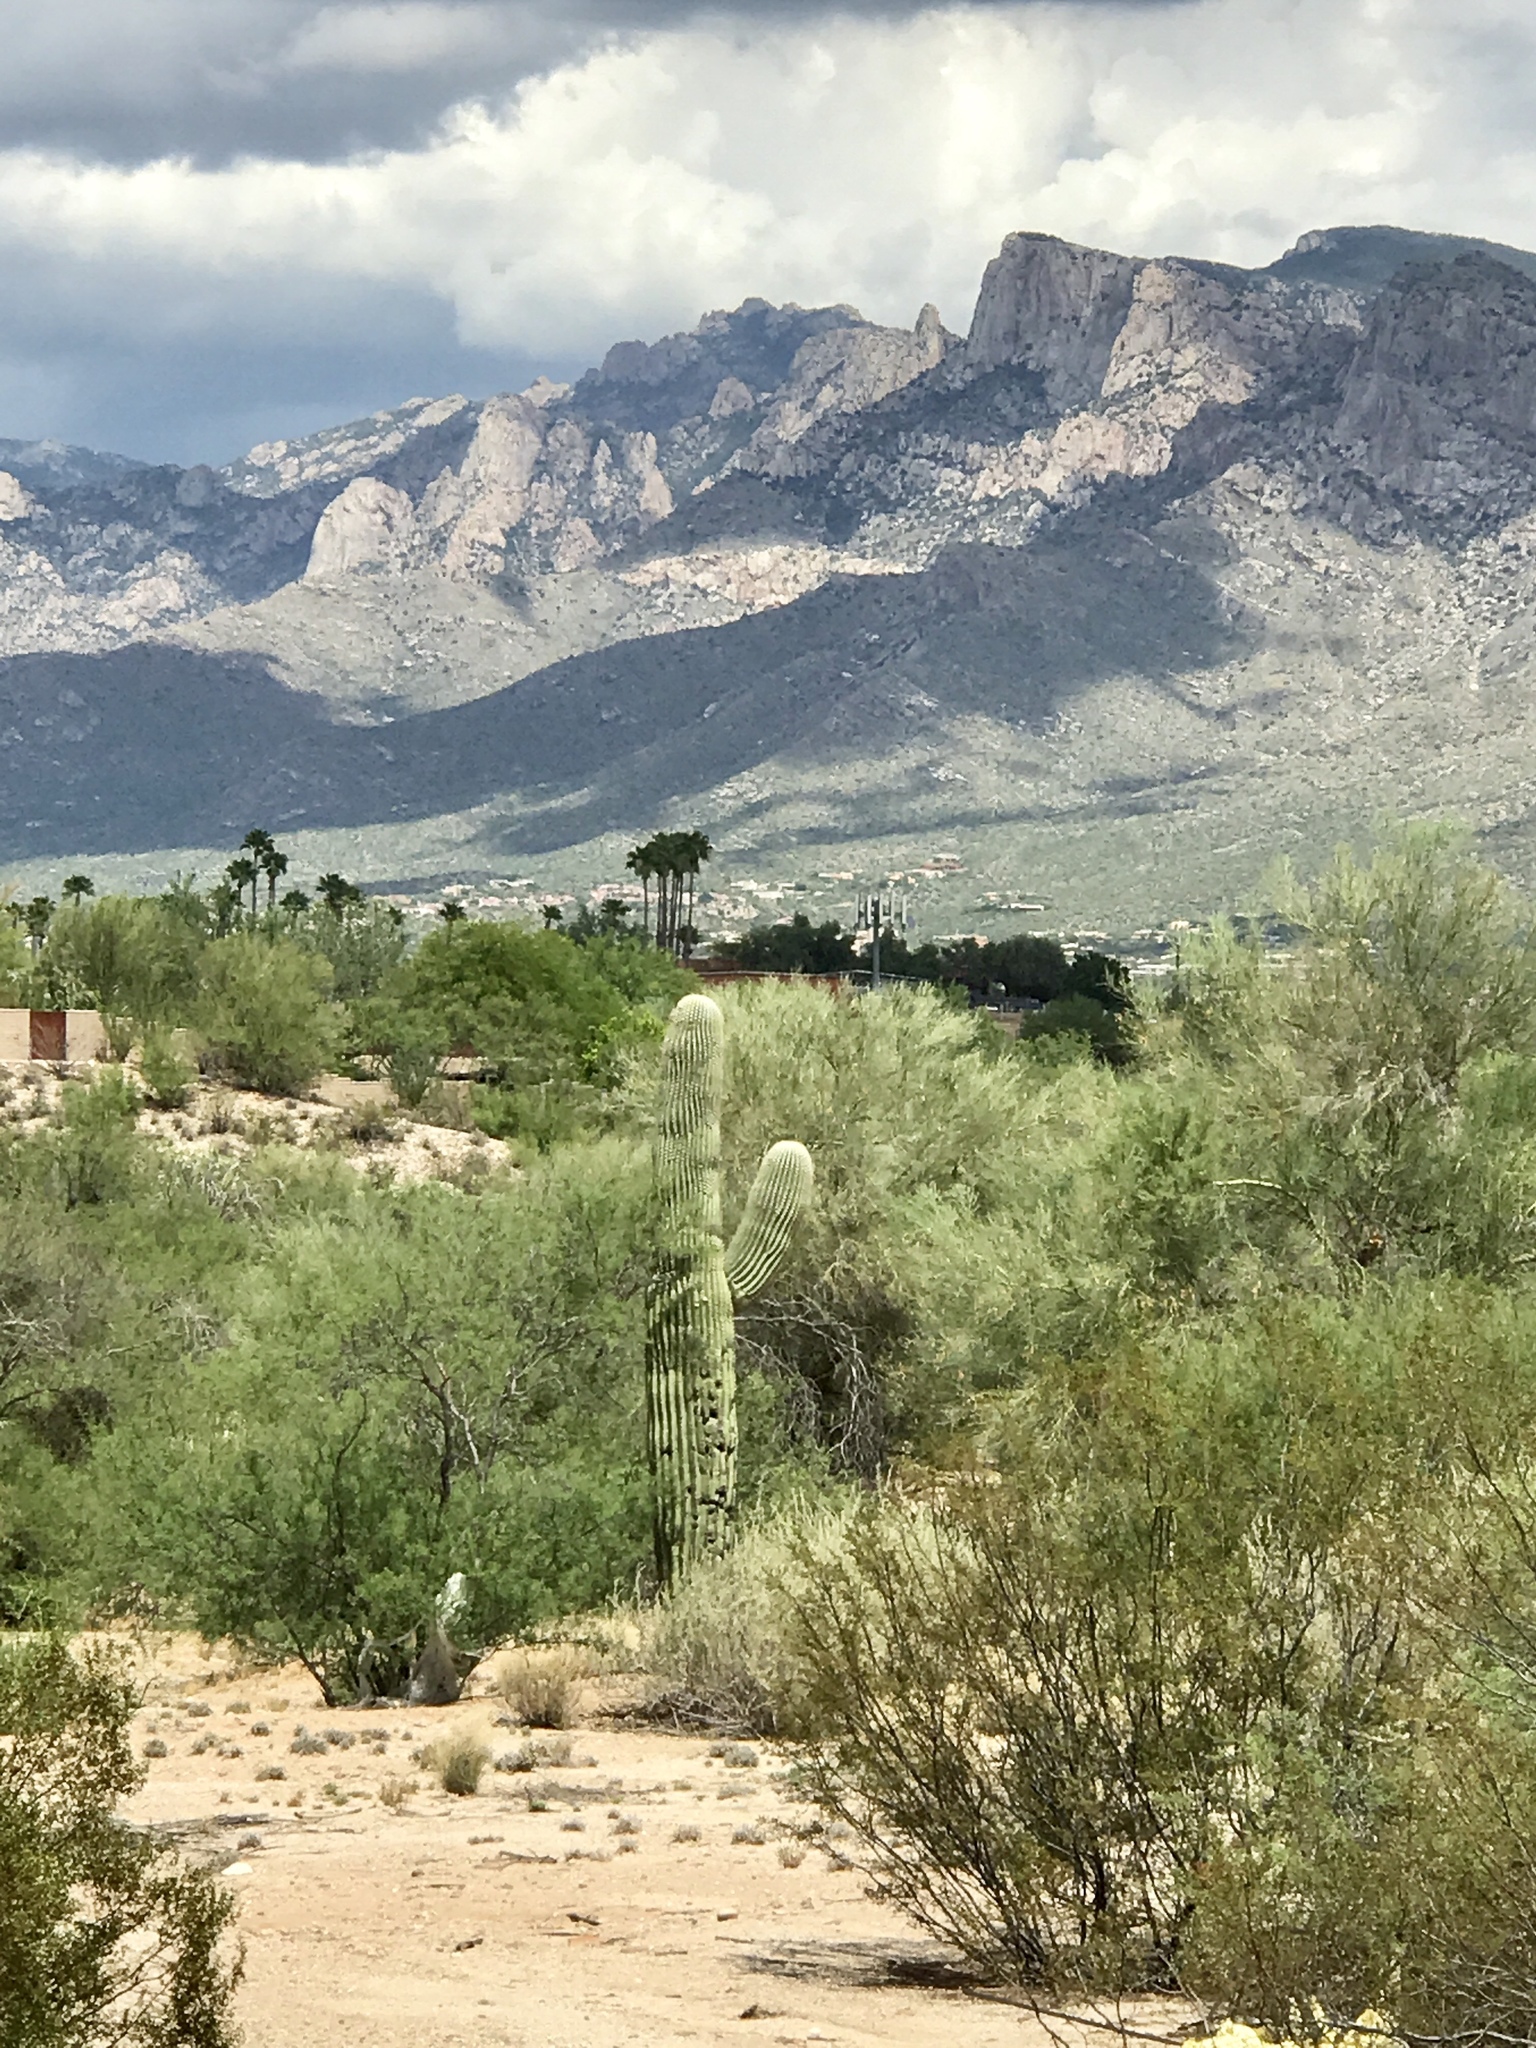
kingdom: Plantae
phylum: Tracheophyta
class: Magnoliopsida
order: Caryophyllales
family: Cactaceae
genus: Carnegiea
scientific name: Carnegiea gigantea
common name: Saguaro
